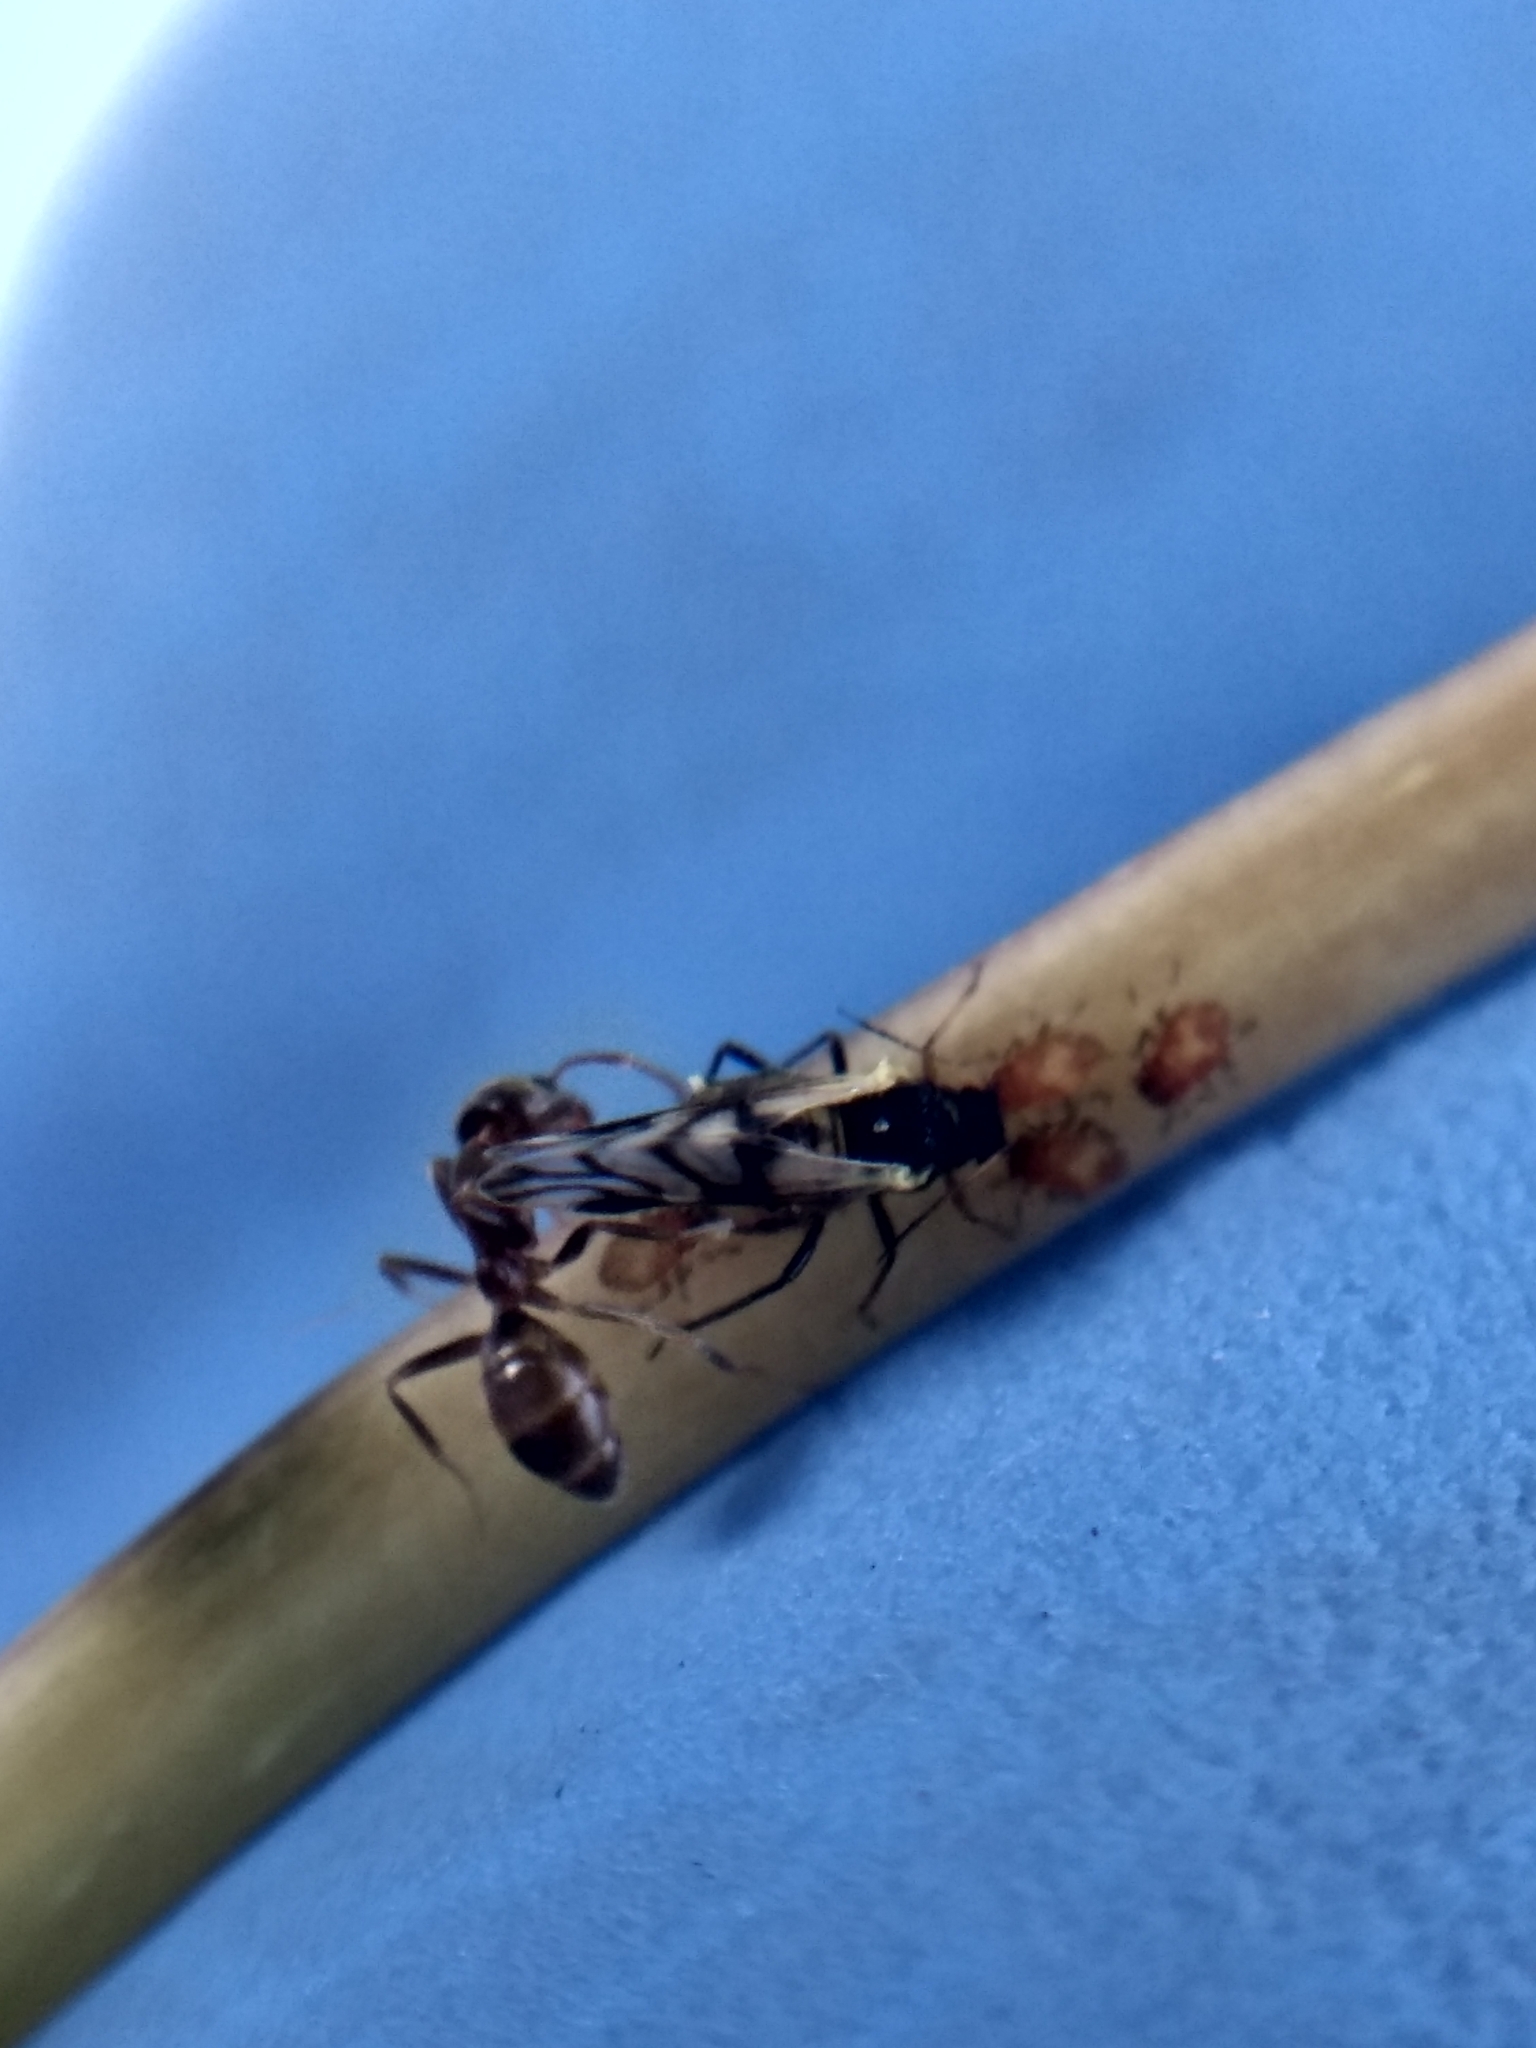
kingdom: Animalia
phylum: Arthropoda
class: Insecta
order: Hemiptera
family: Aphididae
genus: Chaitophorus
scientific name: Chaitophorus populicola
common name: Smokywinged poplar aphid
